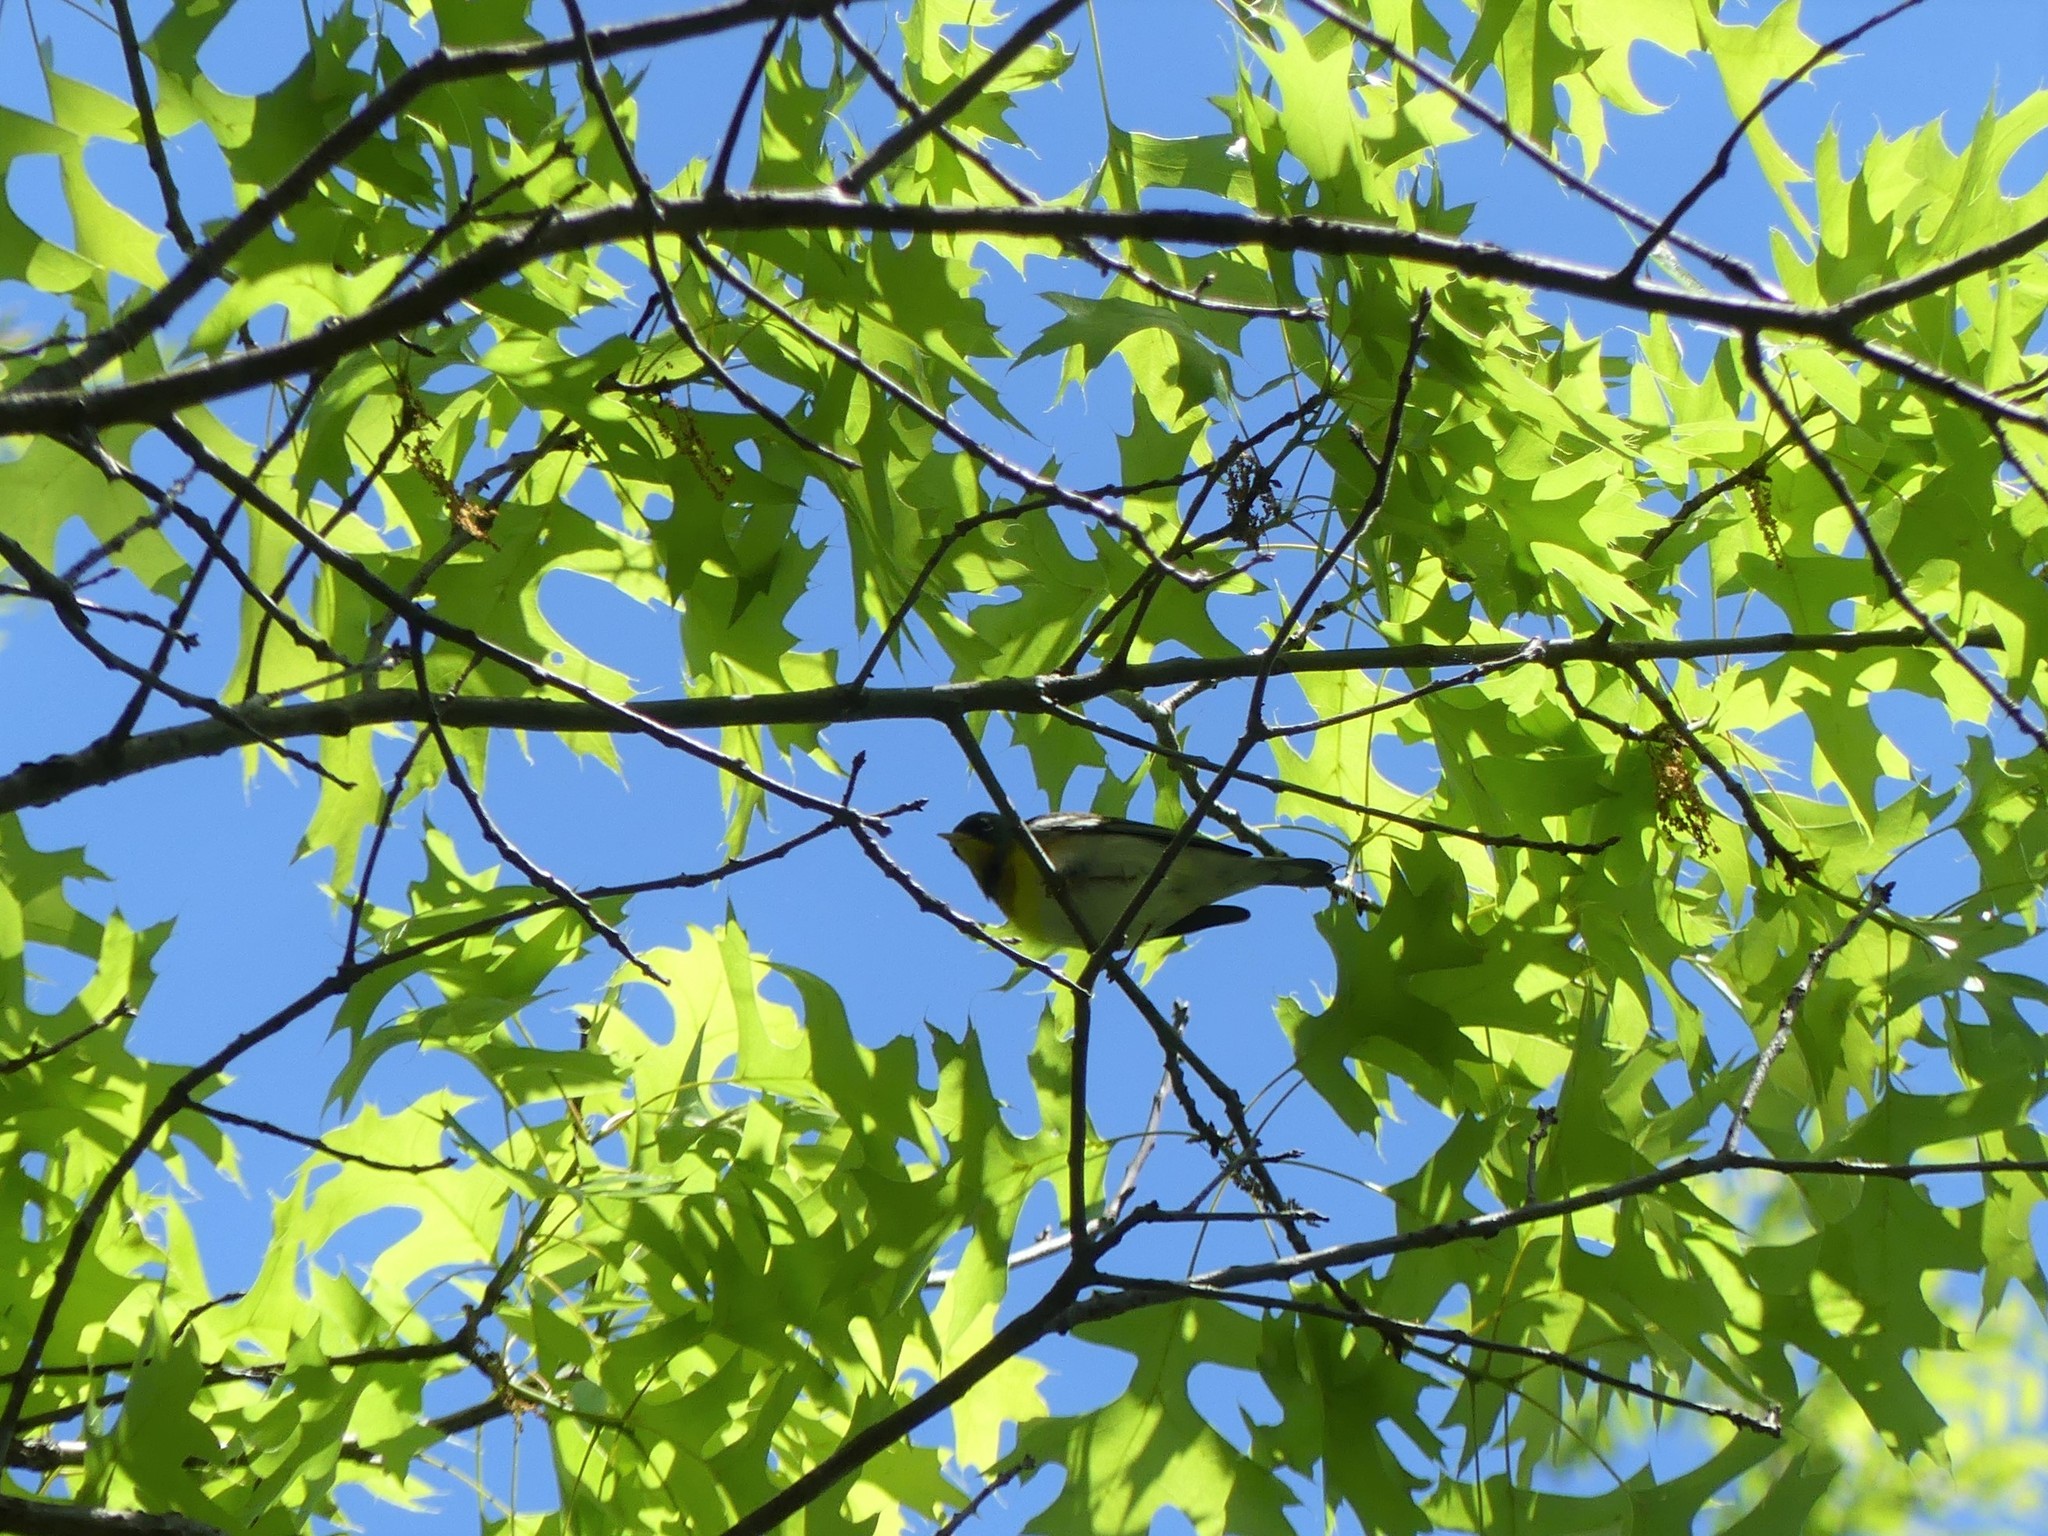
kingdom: Animalia
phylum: Chordata
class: Aves
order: Passeriformes
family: Parulidae
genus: Setophaga
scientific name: Setophaga americana
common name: Northern parula
